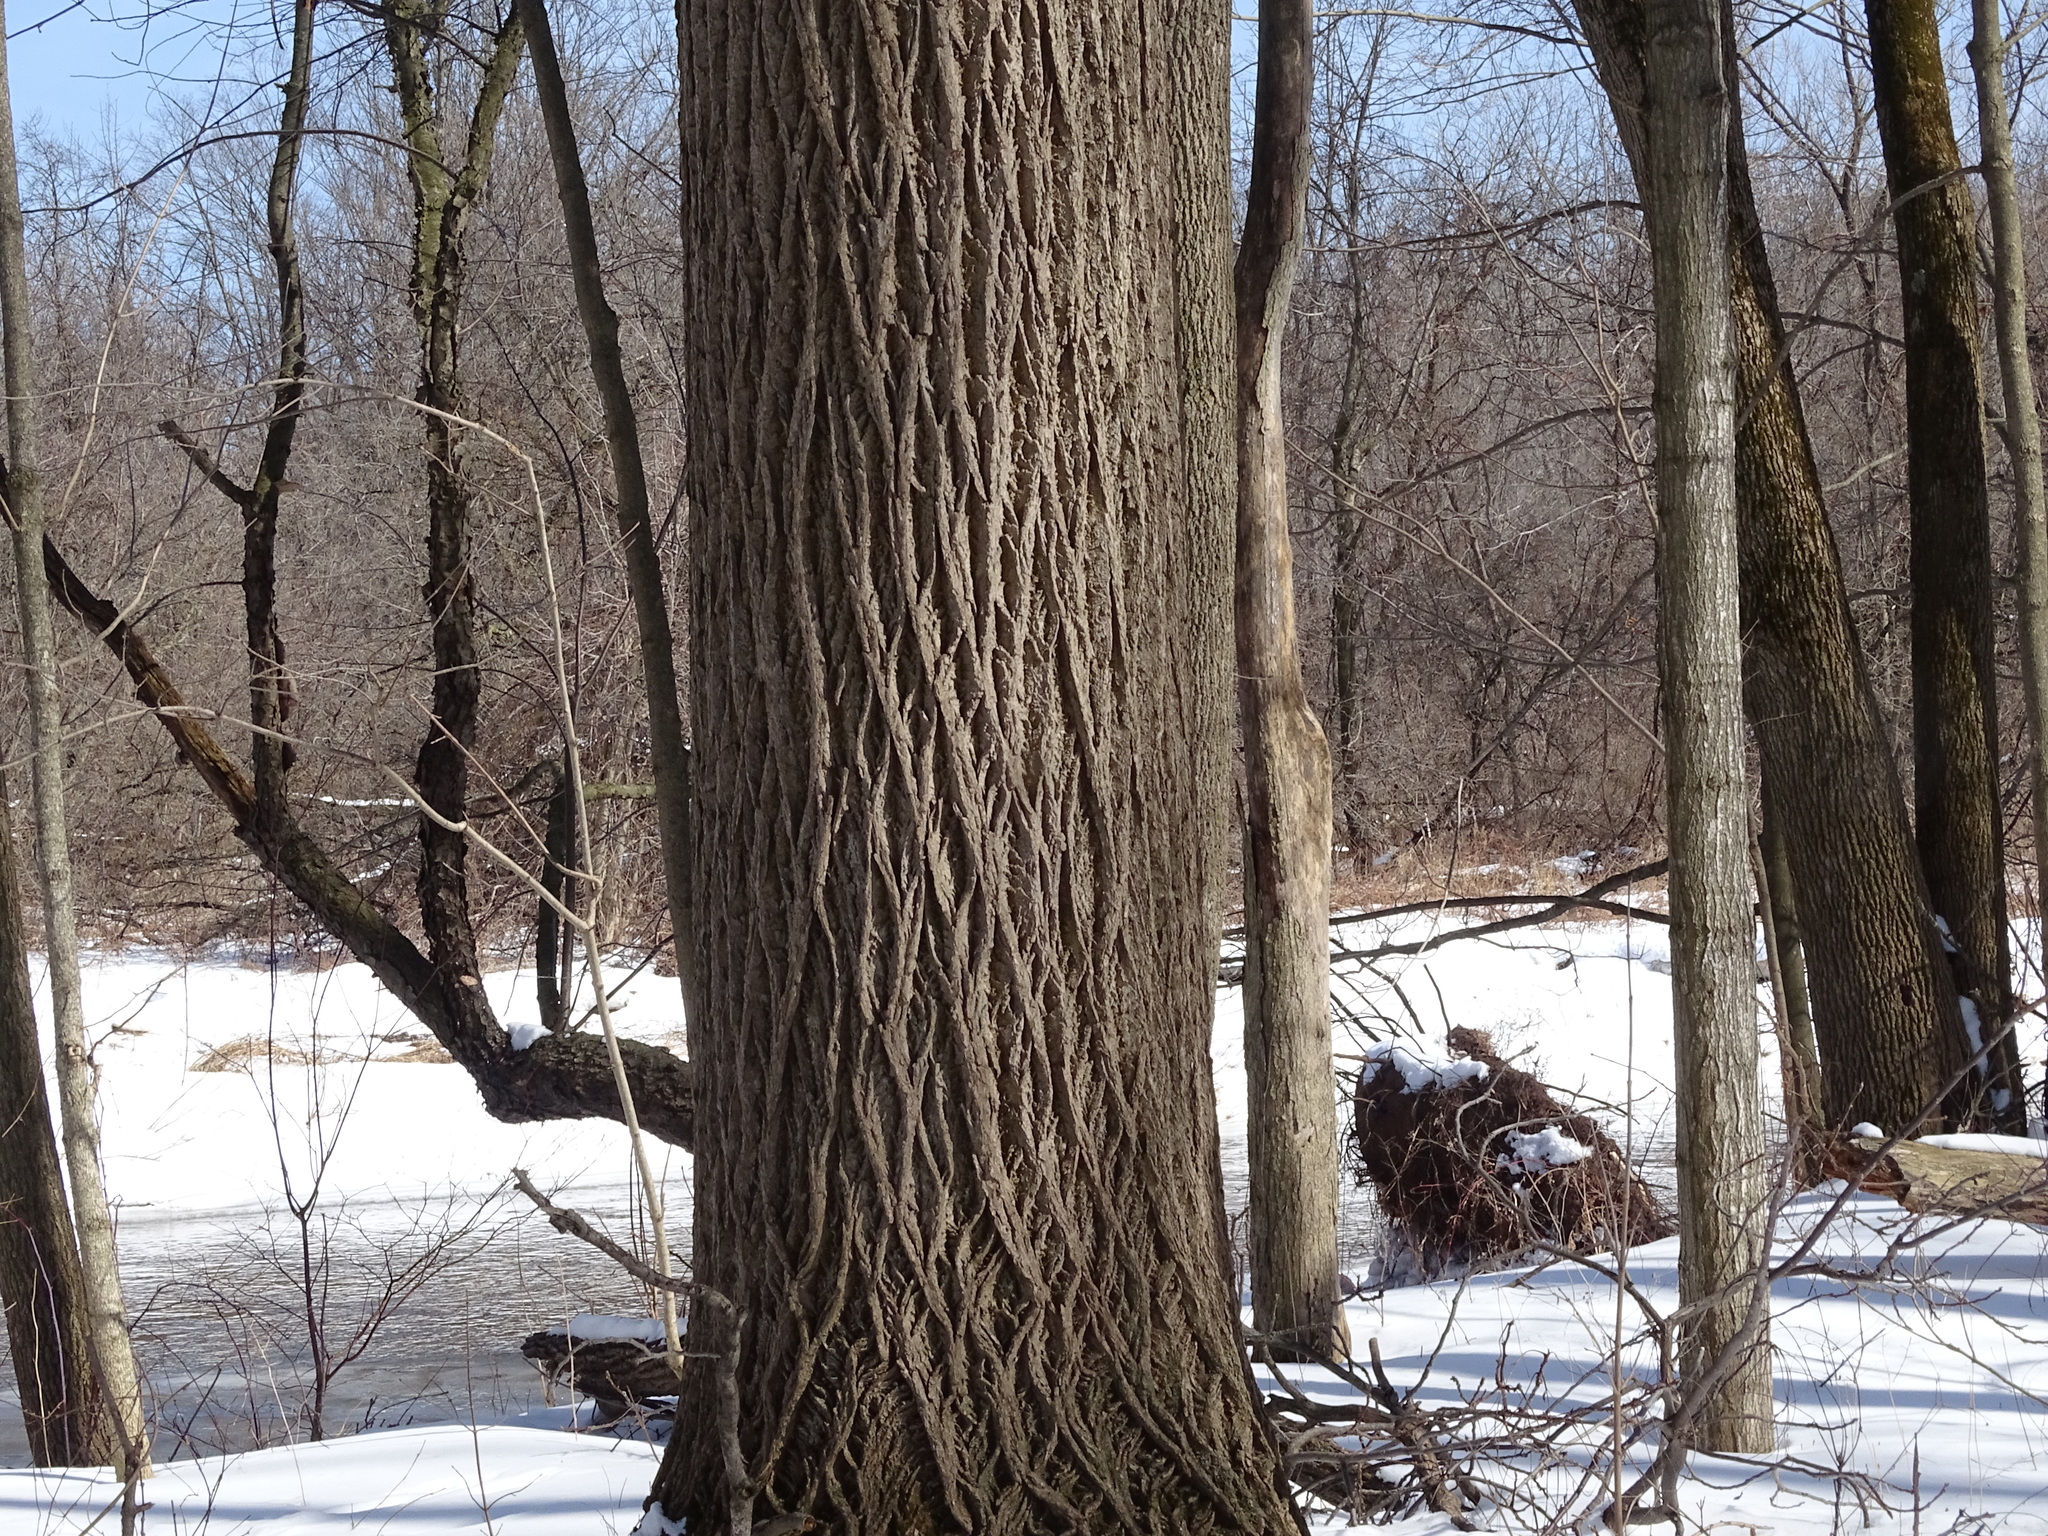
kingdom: Plantae
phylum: Tracheophyta
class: Magnoliopsida
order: Fagales
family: Juglandaceae
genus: Juglans
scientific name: Juglans nigra
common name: Black walnut
